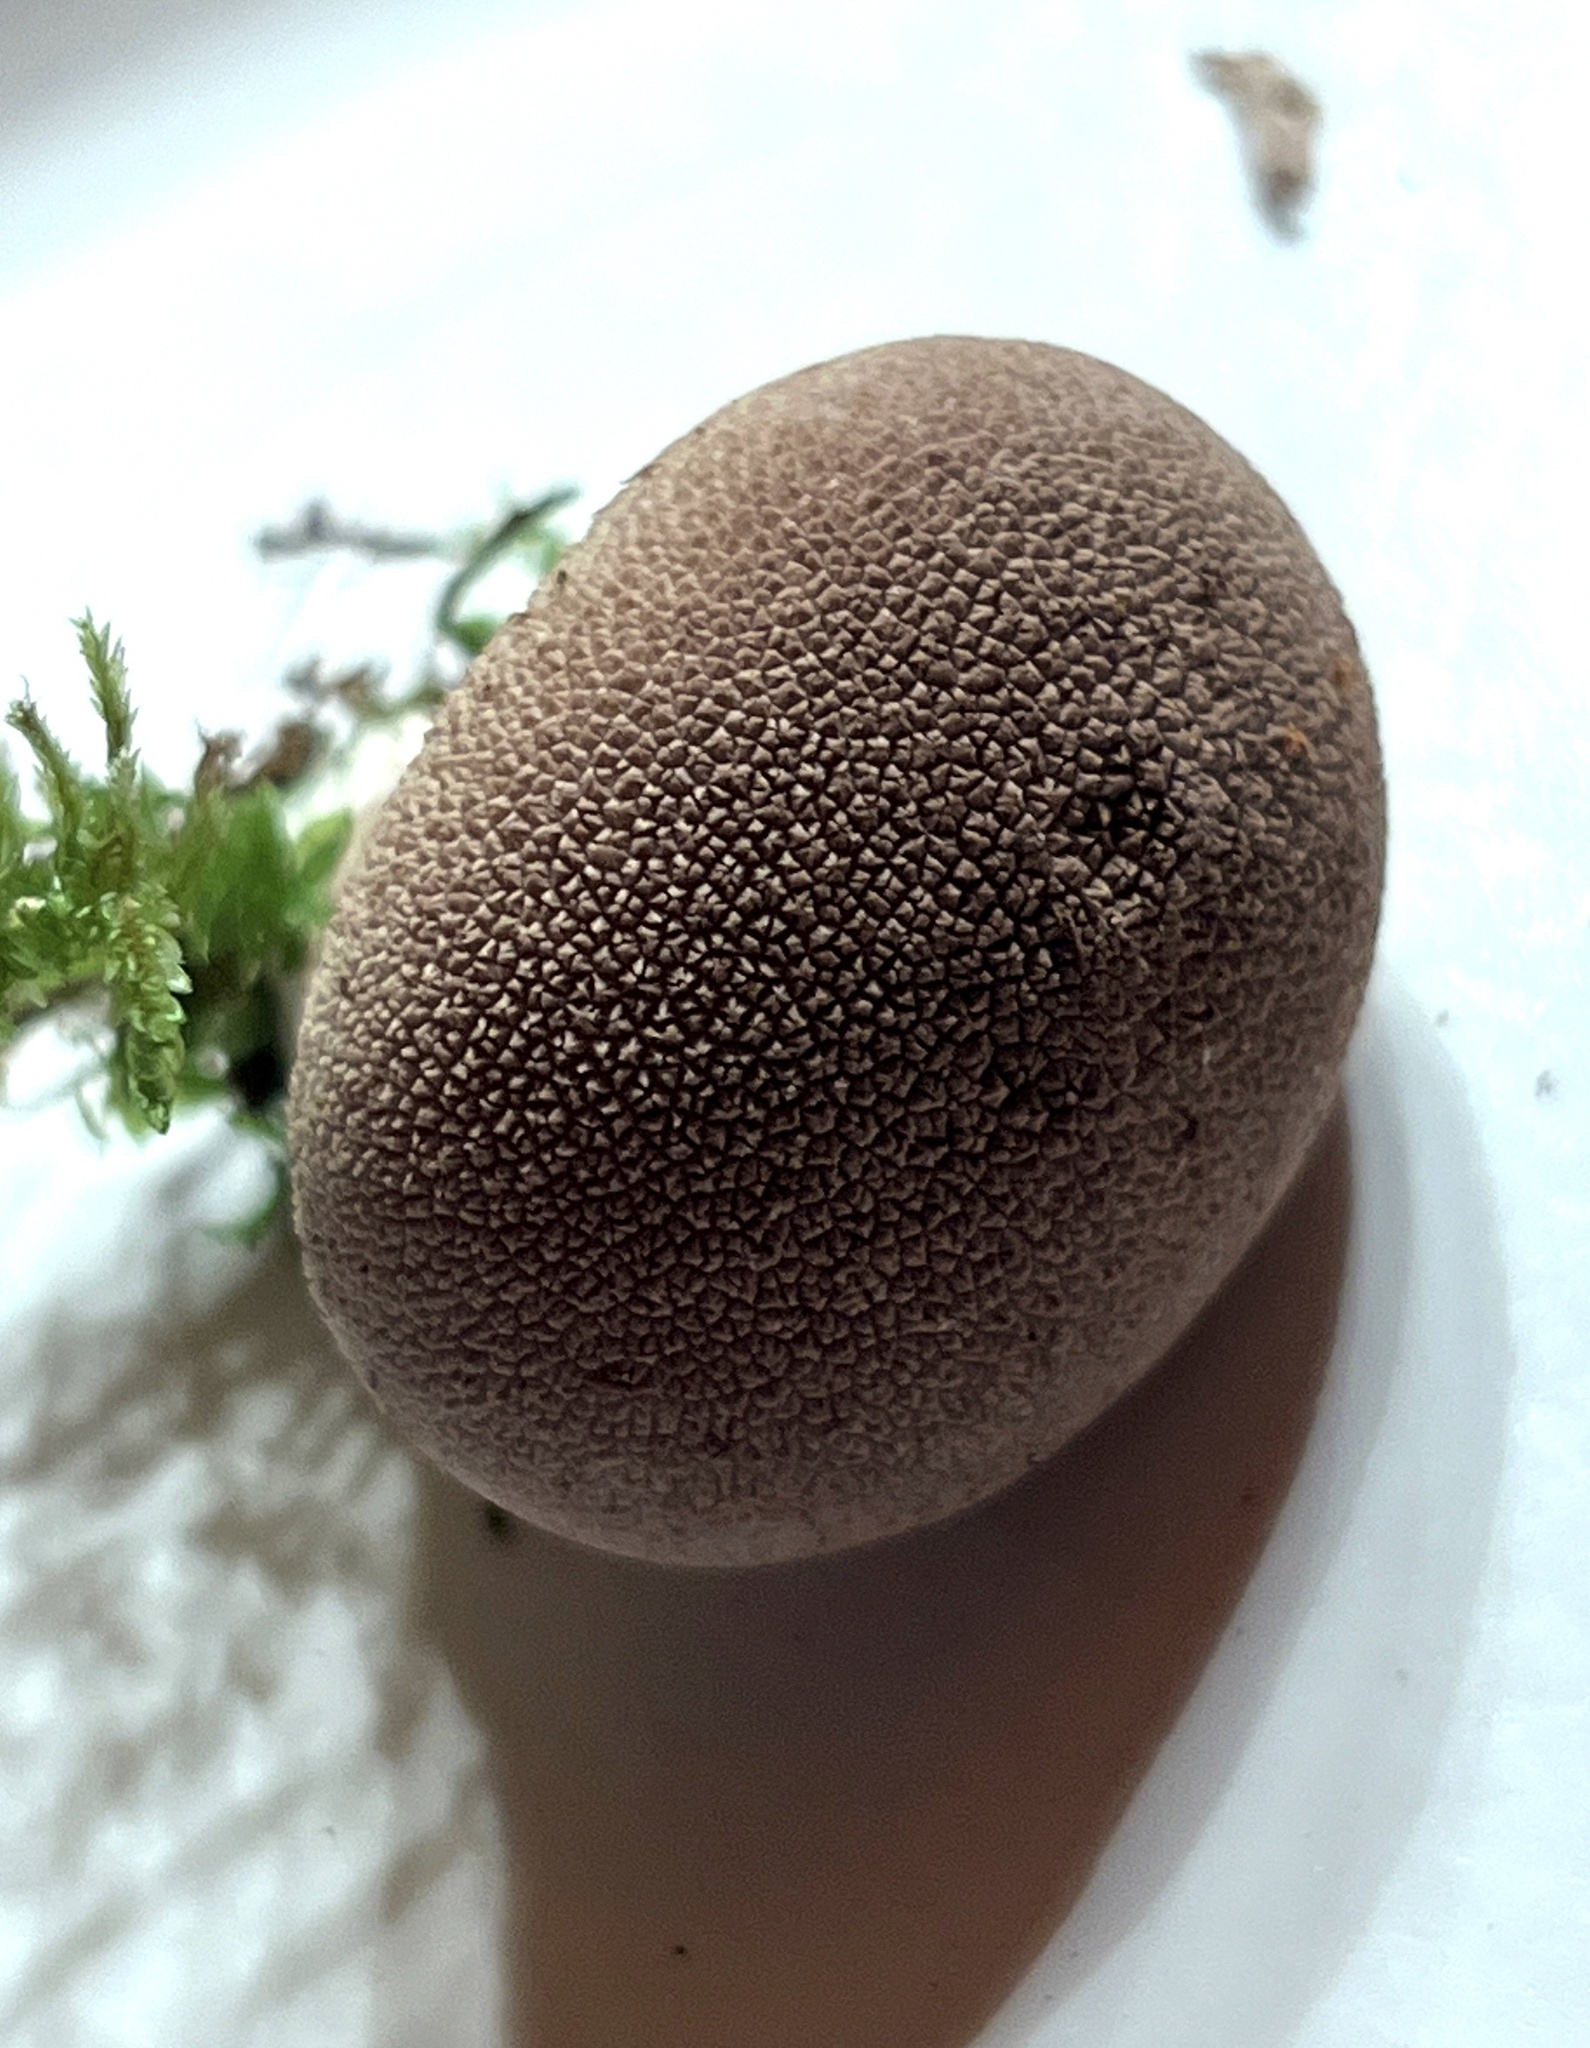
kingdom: Fungi
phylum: Basidiomycota
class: Agaricomycetes
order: Agaricales
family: Lycoperdaceae
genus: Lycoperdon
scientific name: Lycoperdon subincarnatum
